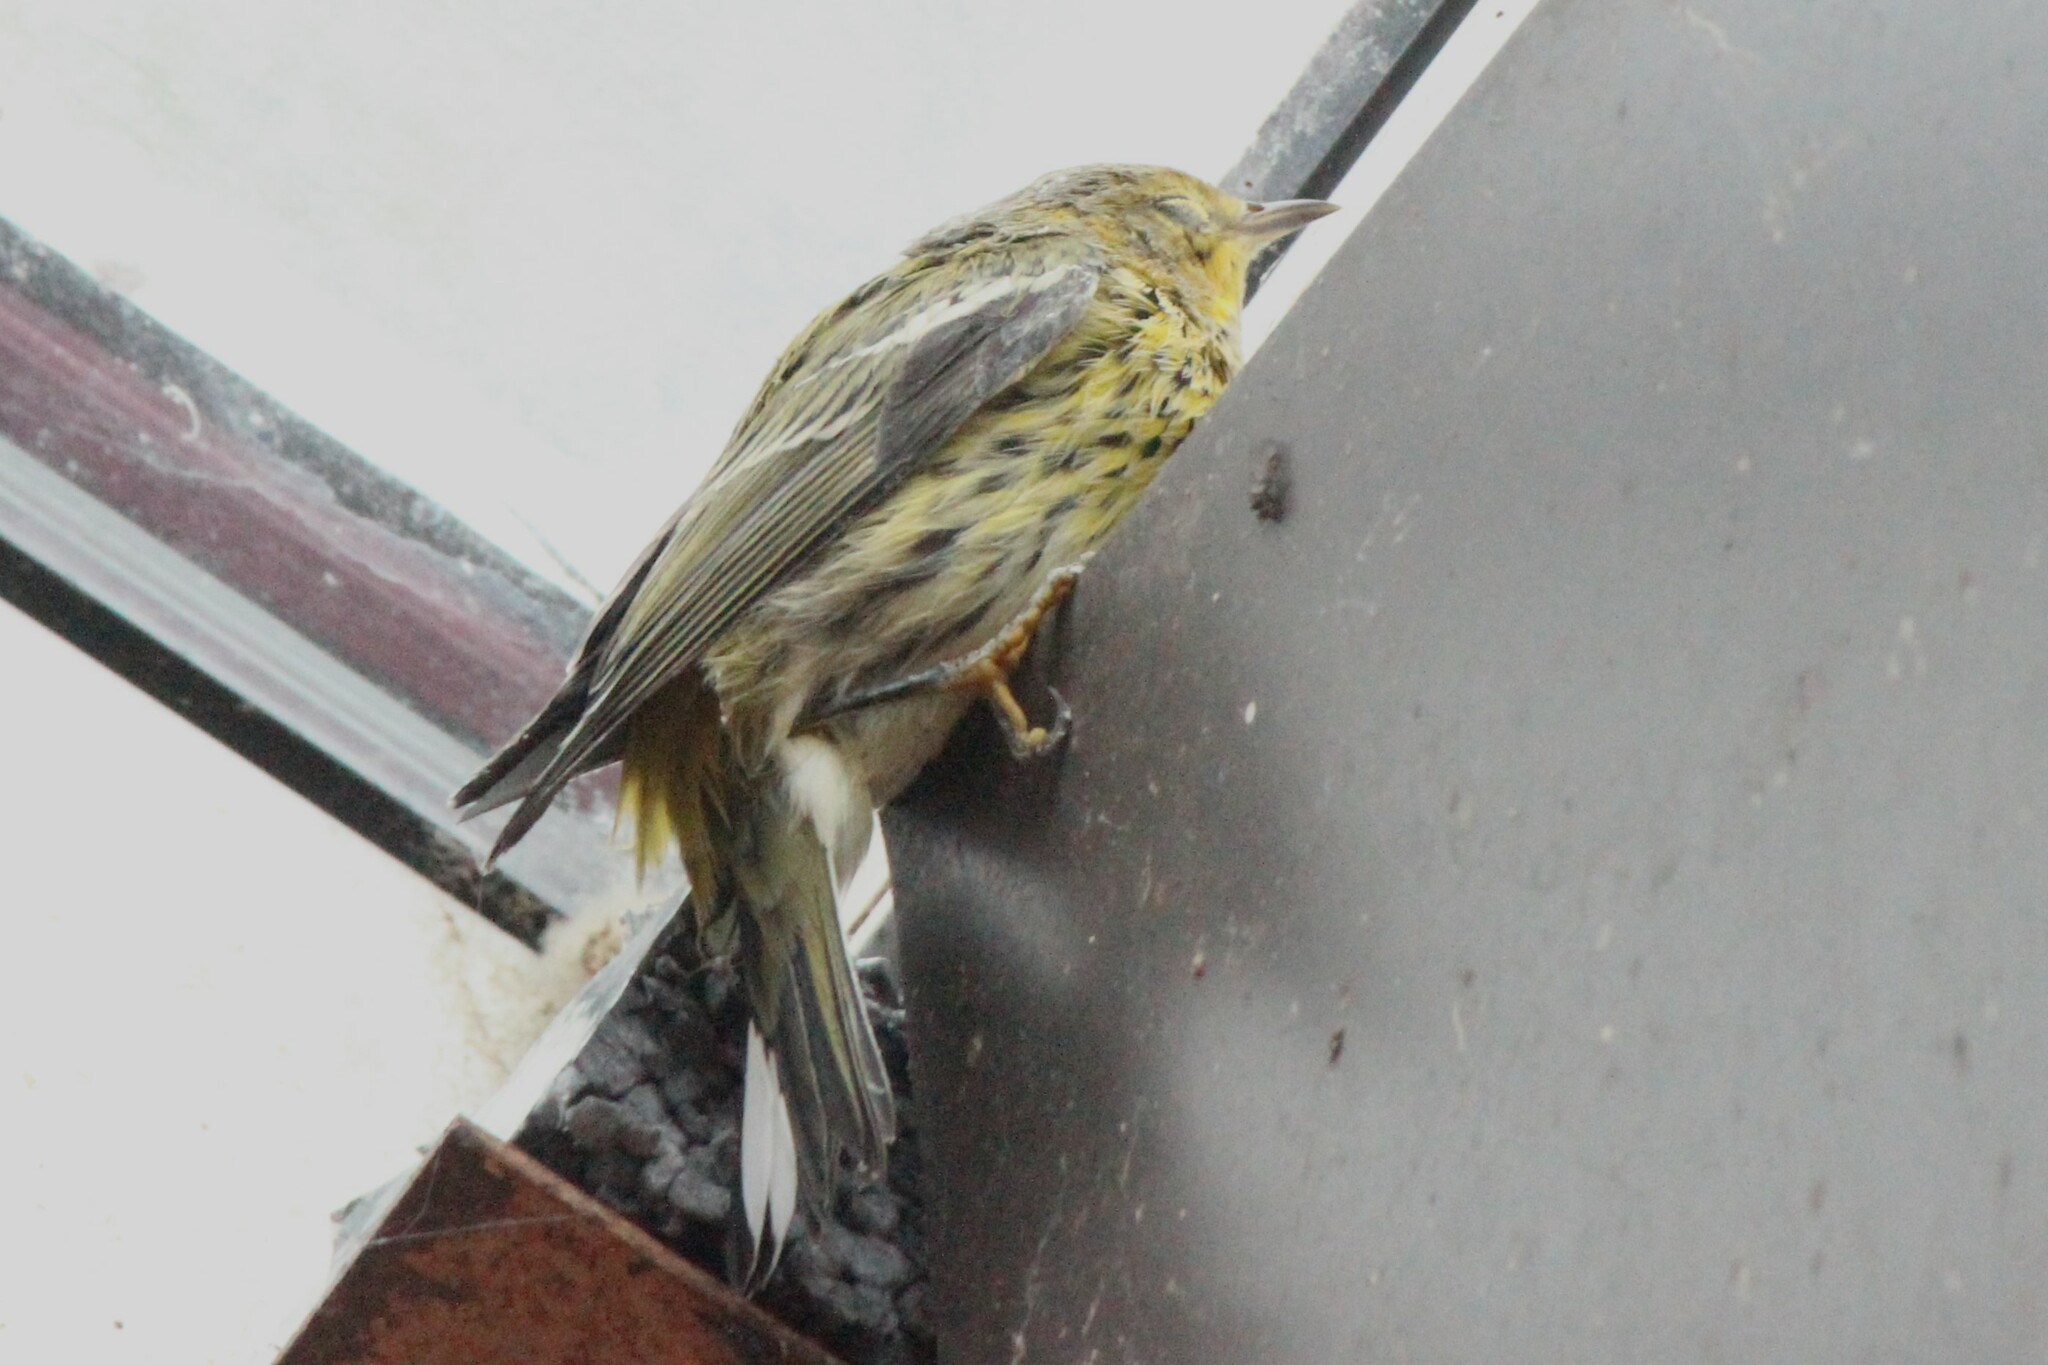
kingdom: Animalia
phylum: Chordata
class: Aves
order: Passeriformes
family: Parulidae
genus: Setophaga
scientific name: Setophaga tigrina
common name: Cape may warbler
